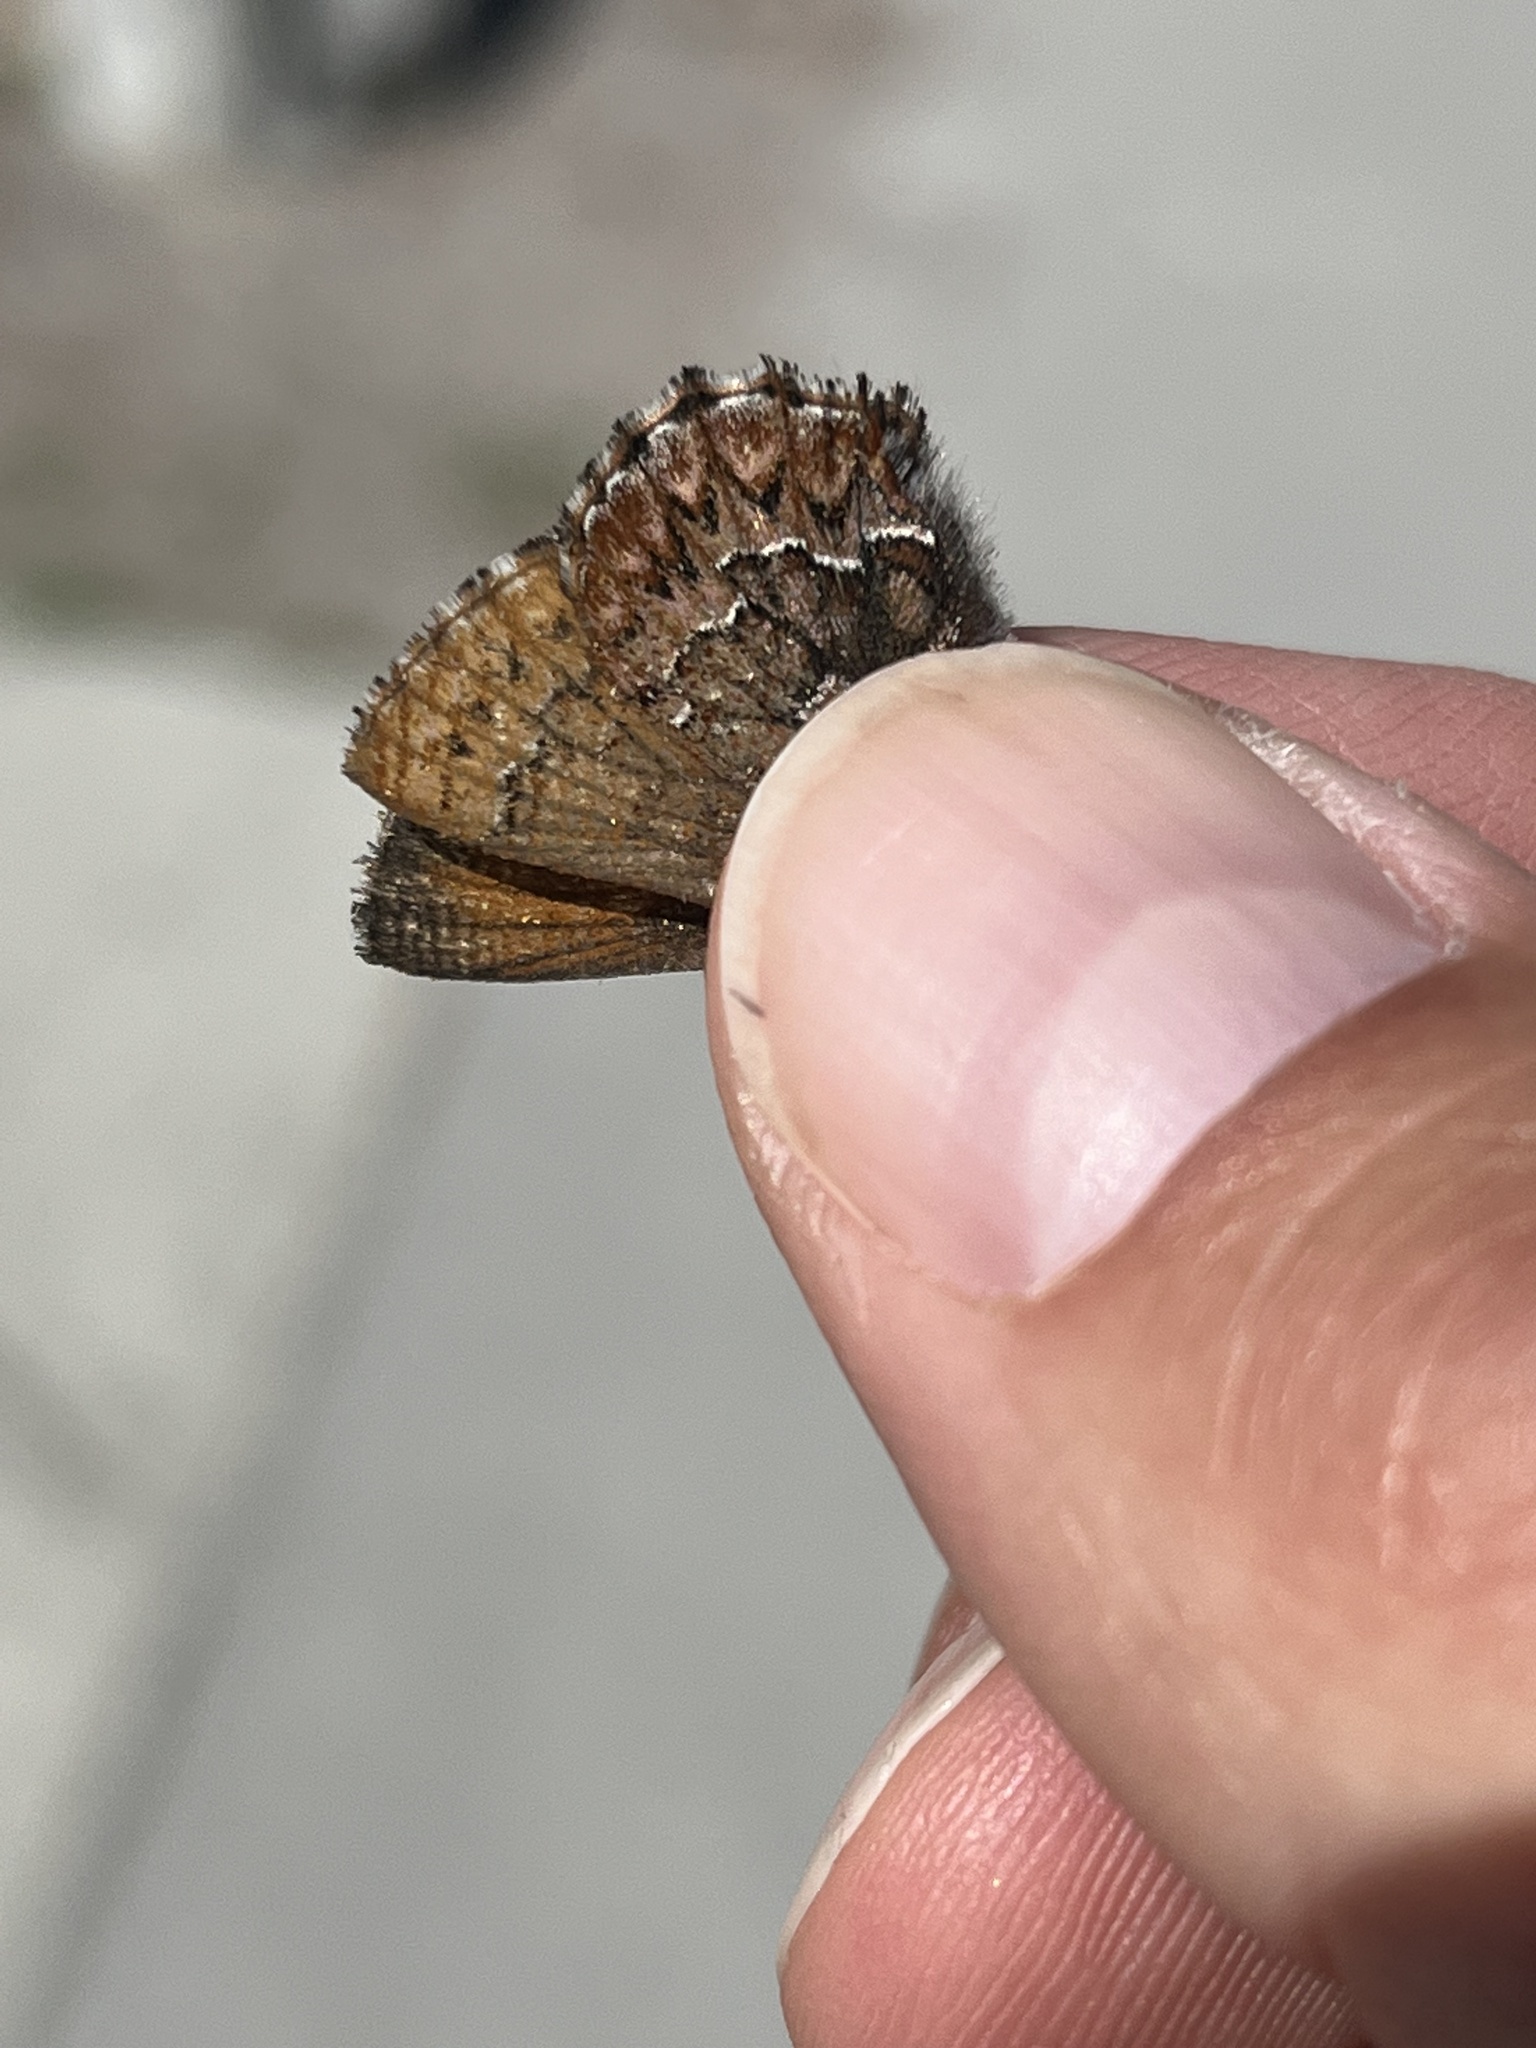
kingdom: Animalia
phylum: Arthropoda
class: Insecta
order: Lepidoptera
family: Lycaenidae
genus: Incisalia
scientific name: Incisalia eryphon
